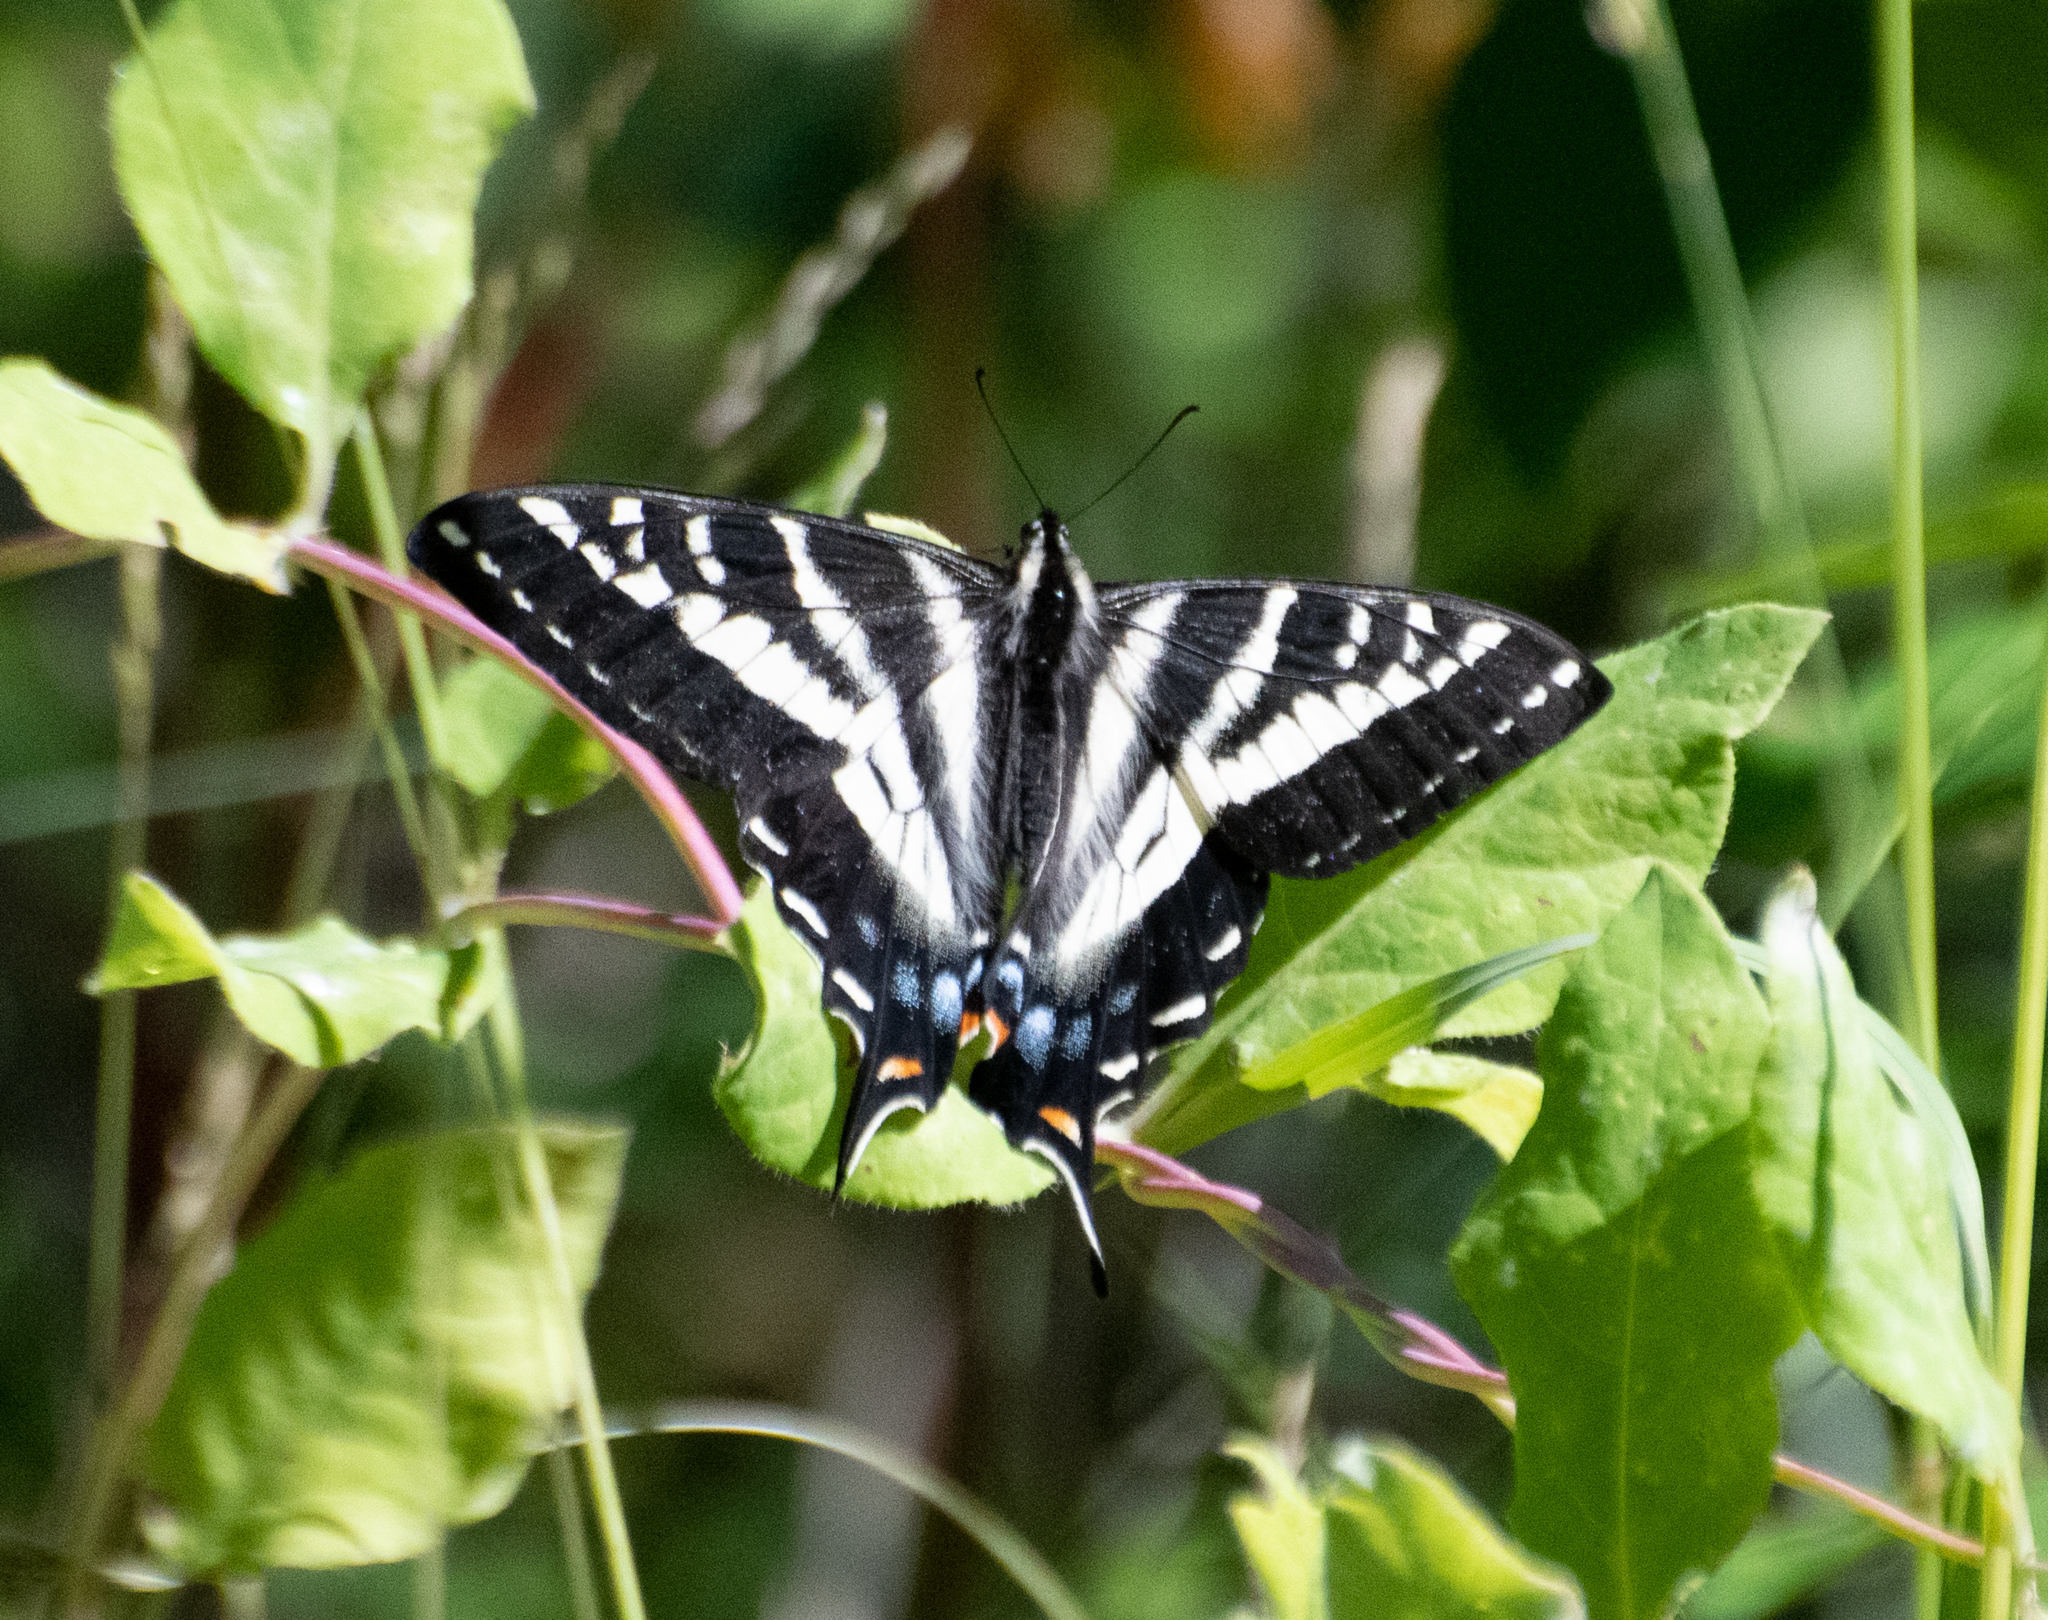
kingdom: Animalia
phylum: Arthropoda
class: Insecta
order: Lepidoptera
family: Papilionidae
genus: Papilio
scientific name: Papilio eurymedon
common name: Pale tiger swallowtail
